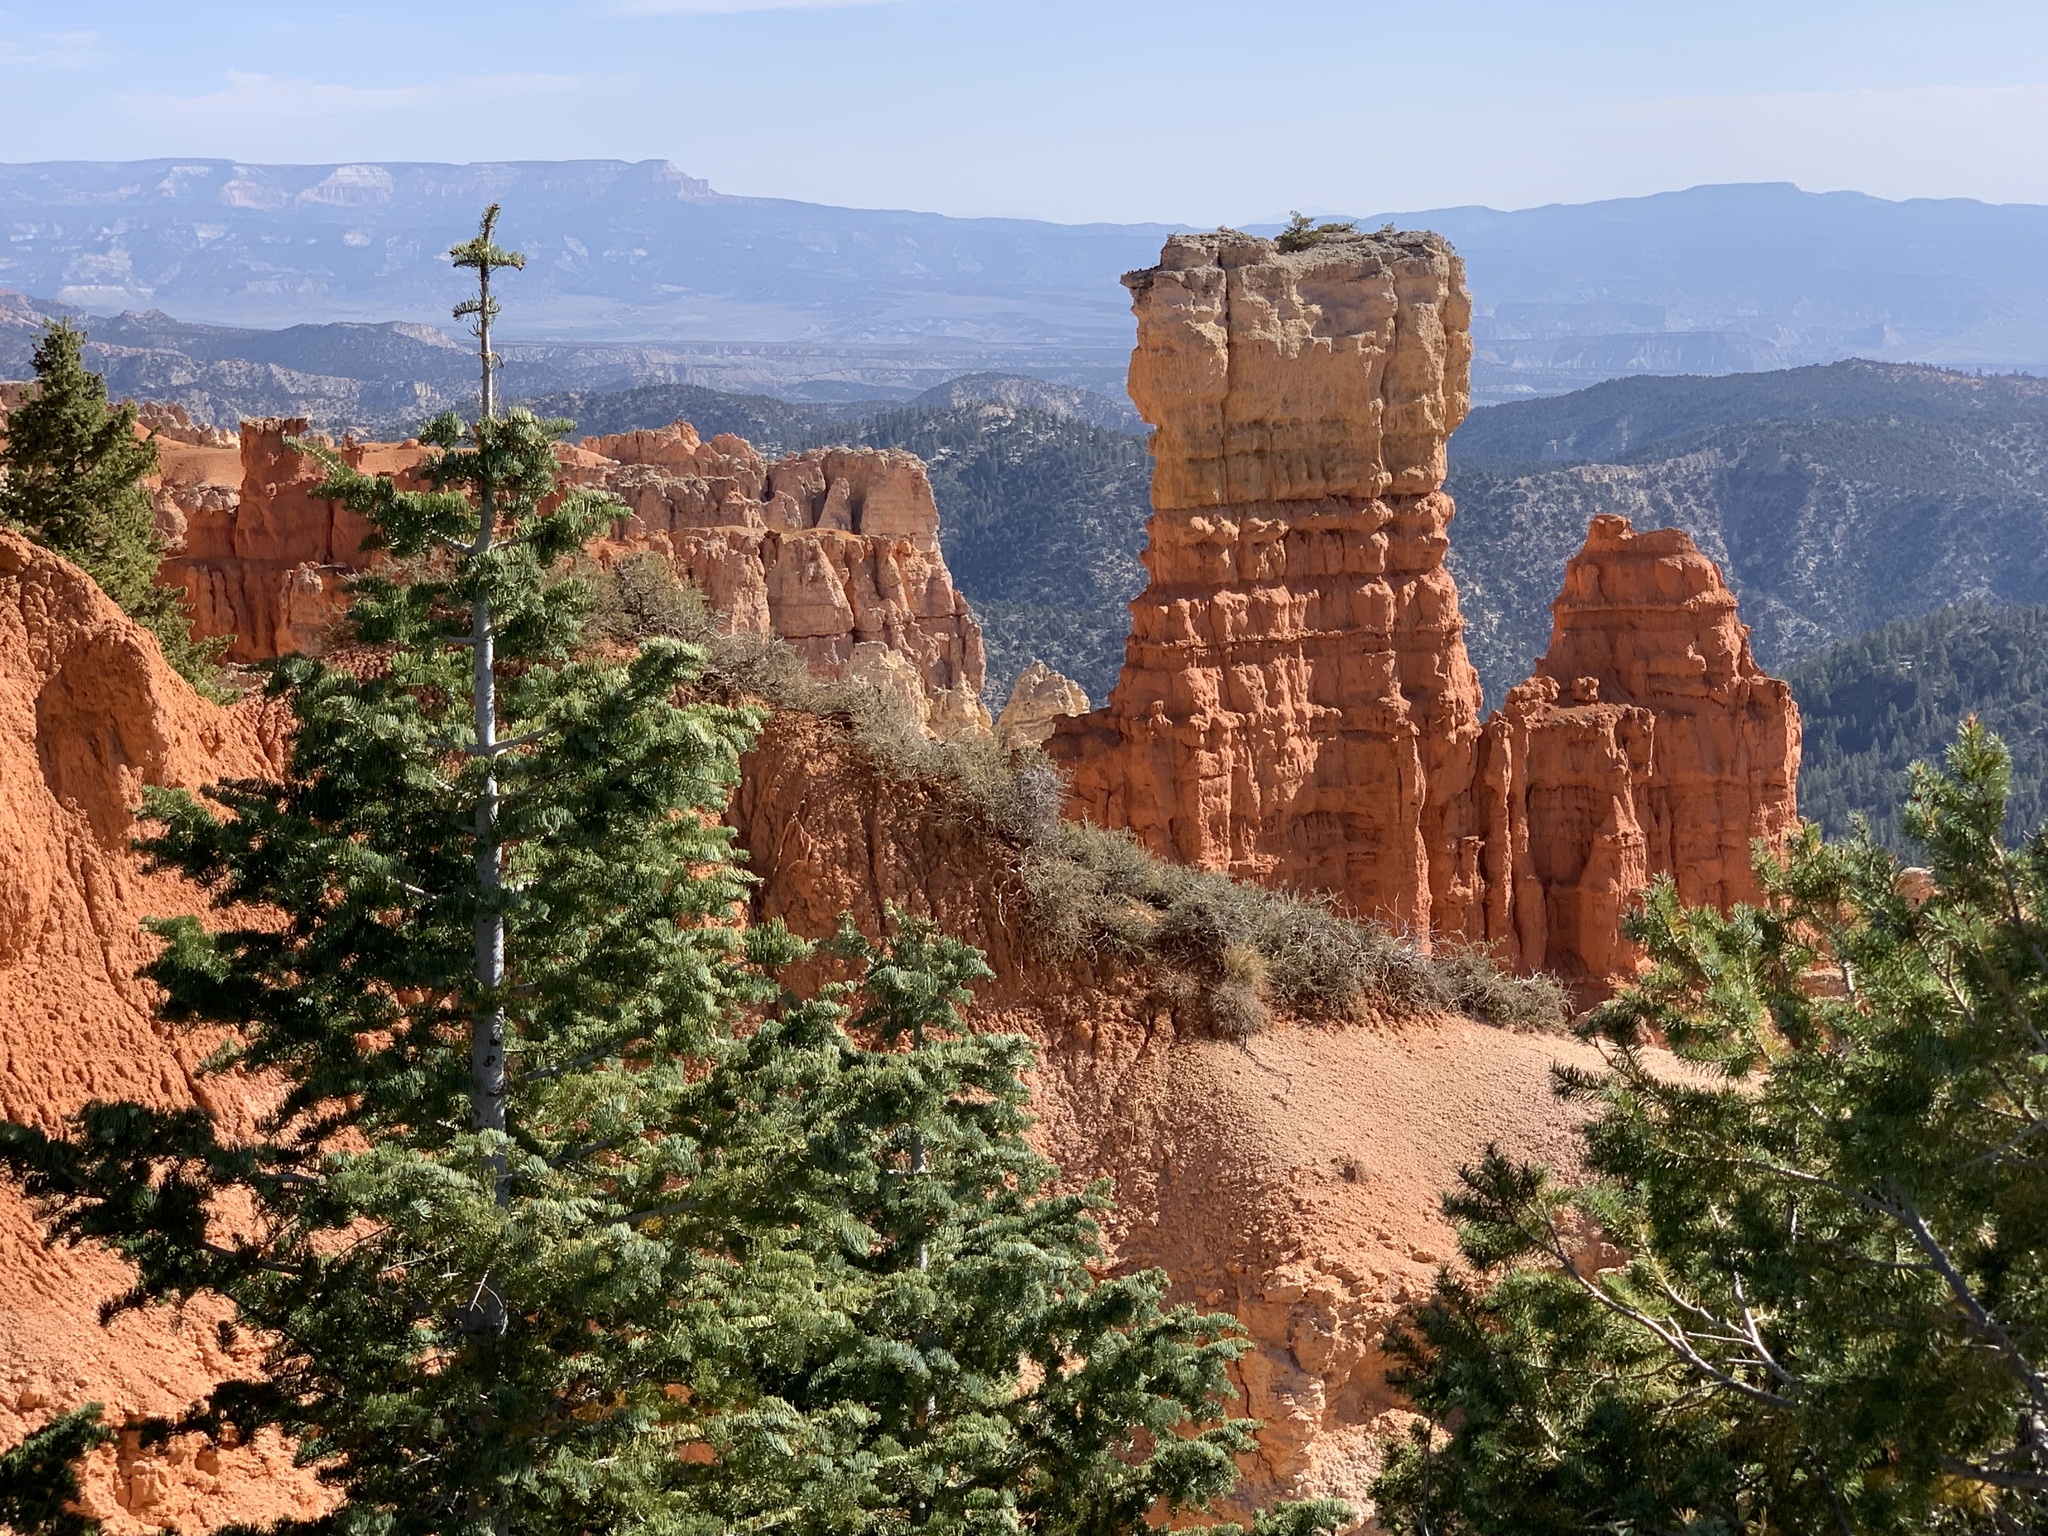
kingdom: Plantae
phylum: Tracheophyta
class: Pinopsida
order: Pinales
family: Pinaceae
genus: Abies
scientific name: Abies concolor
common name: Colorado fir
